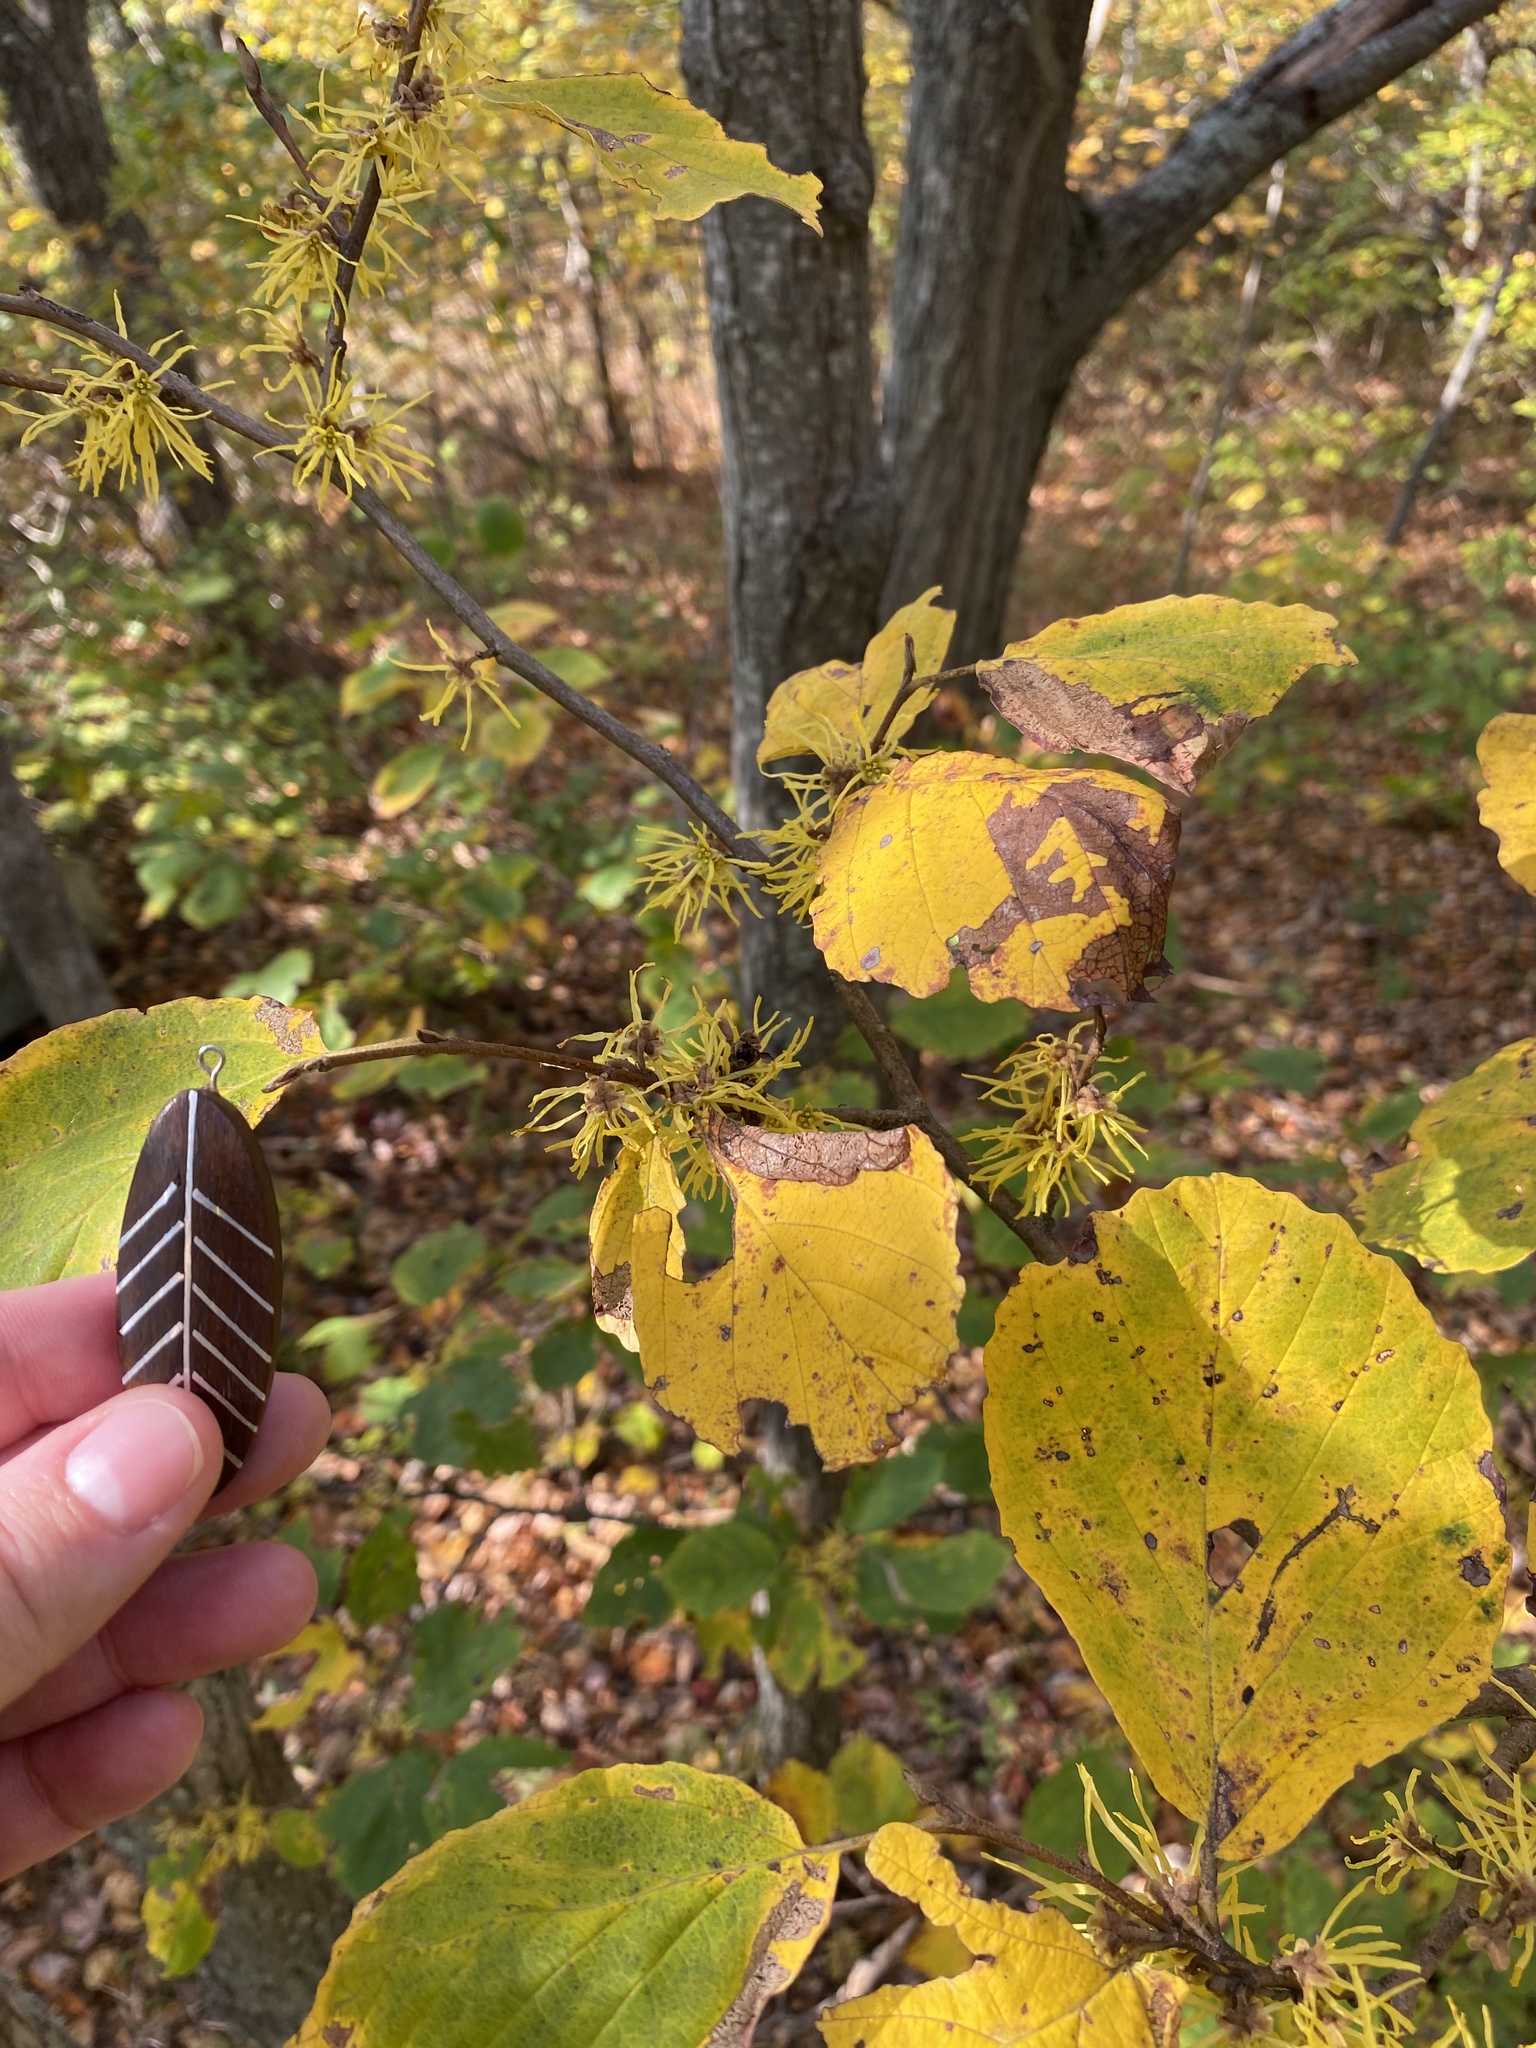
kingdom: Plantae
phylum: Tracheophyta
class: Magnoliopsida
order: Saxifragales
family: Hamamelidaceae
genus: Hamamelis
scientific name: Hamamelis virginiana
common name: Witch-hazel
